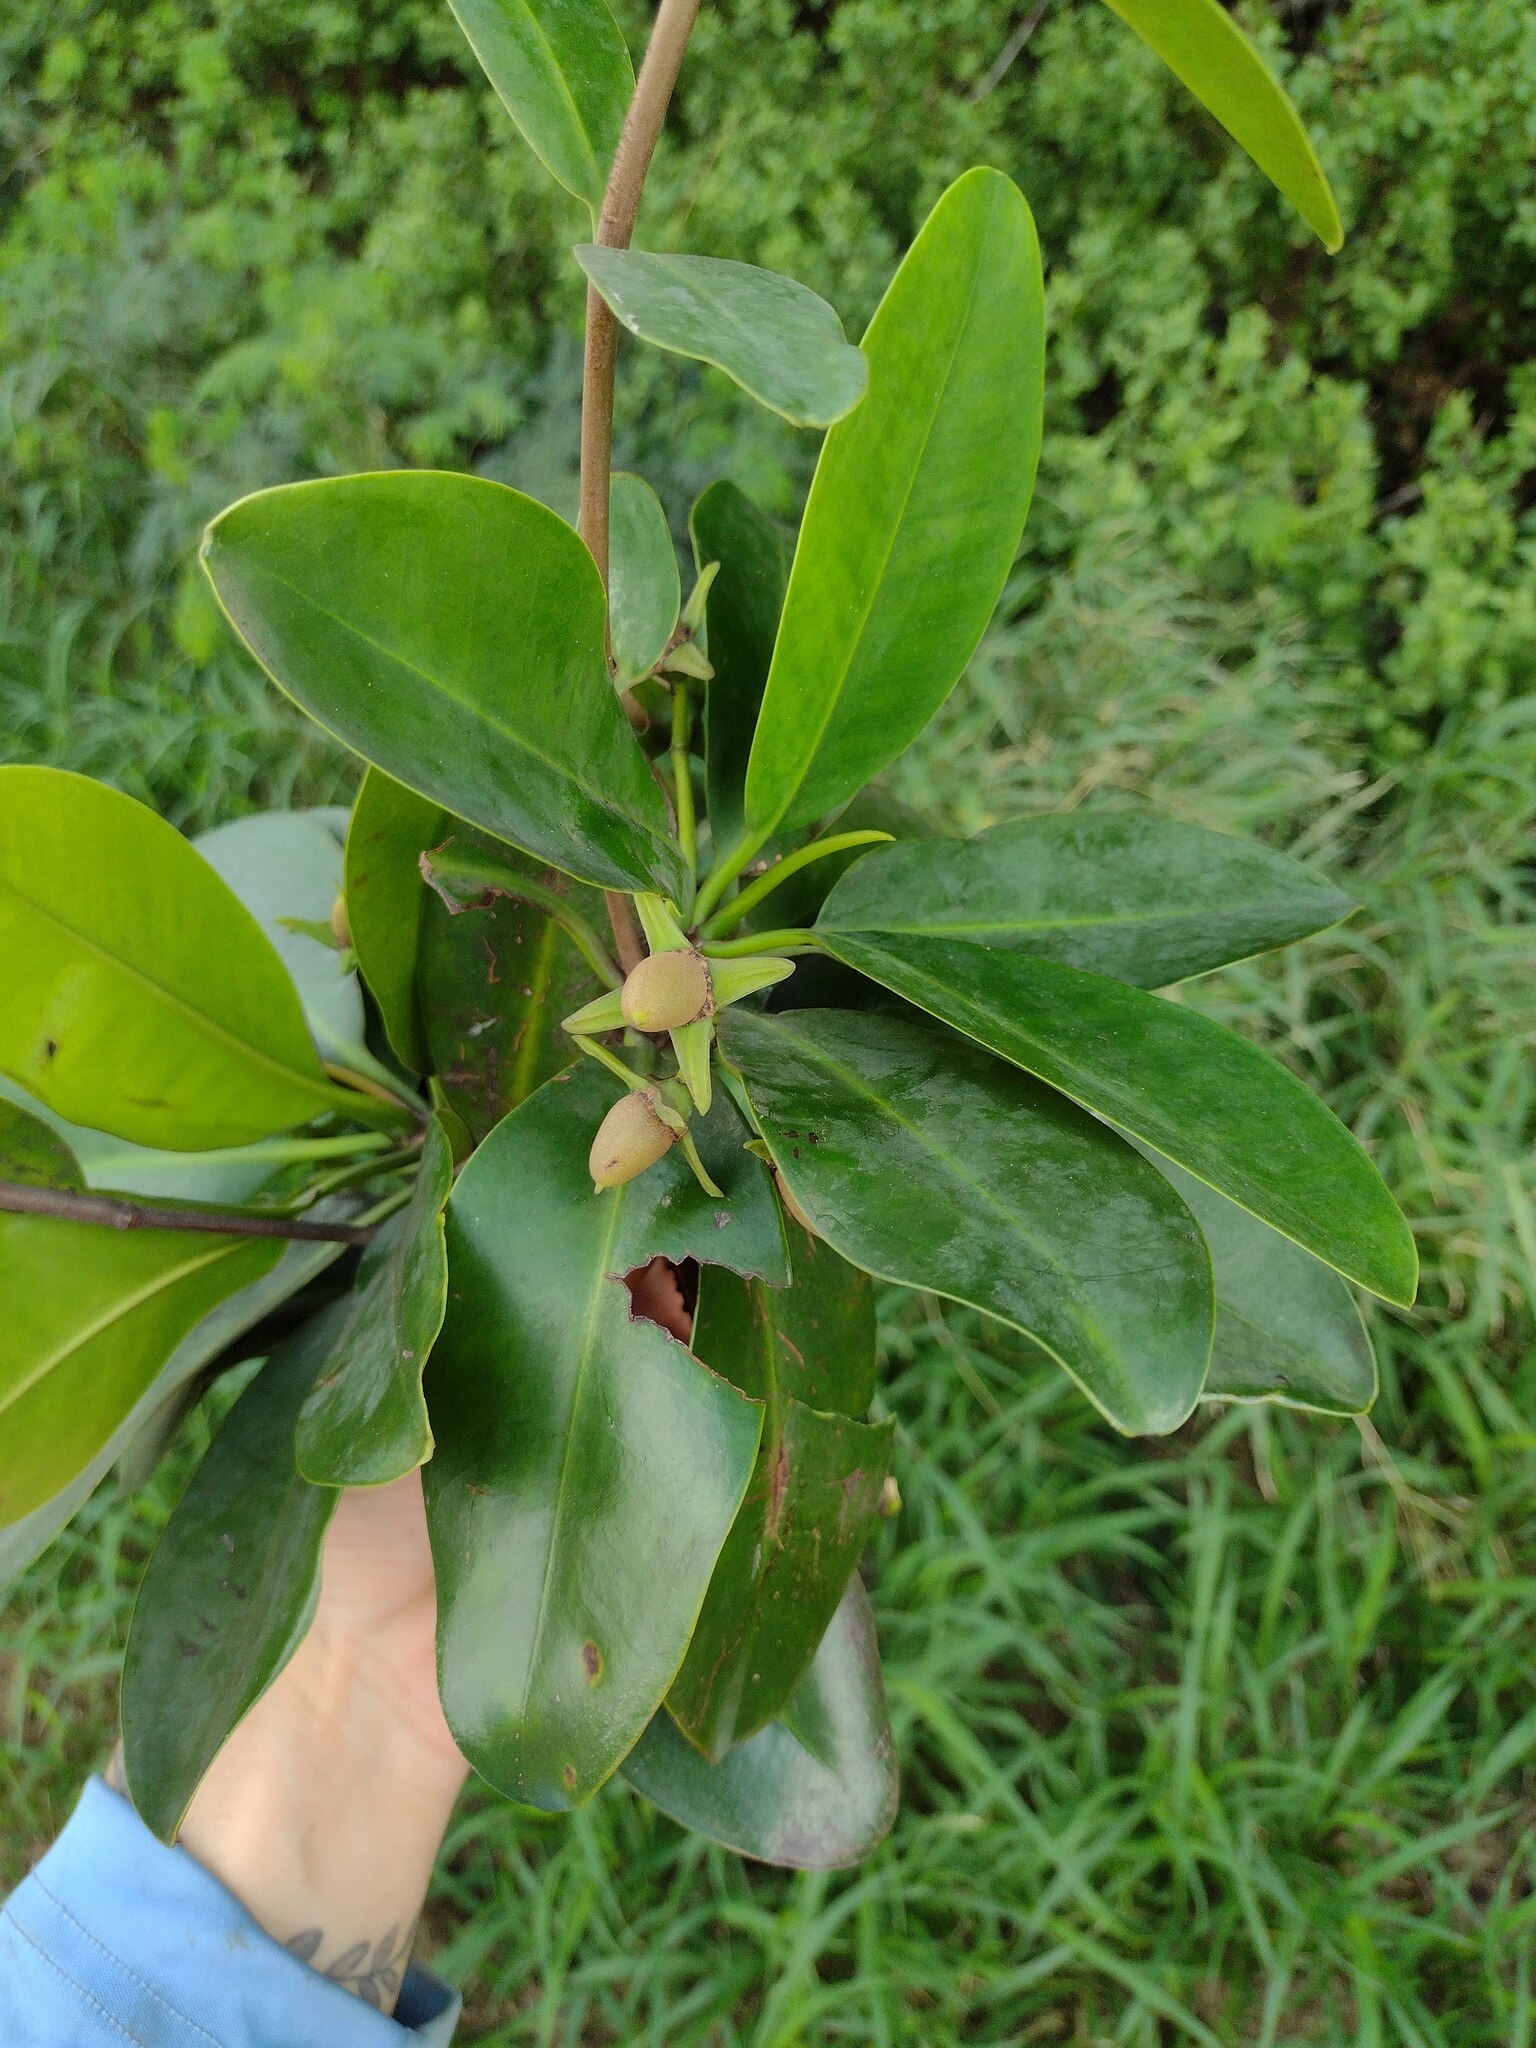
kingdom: Plantae
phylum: Tracheophyta
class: Magnoliopsida
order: Malpighiales
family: Rhizophoraceae
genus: Rhizophora
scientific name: Rhizophora mangle
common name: Red mangrove
